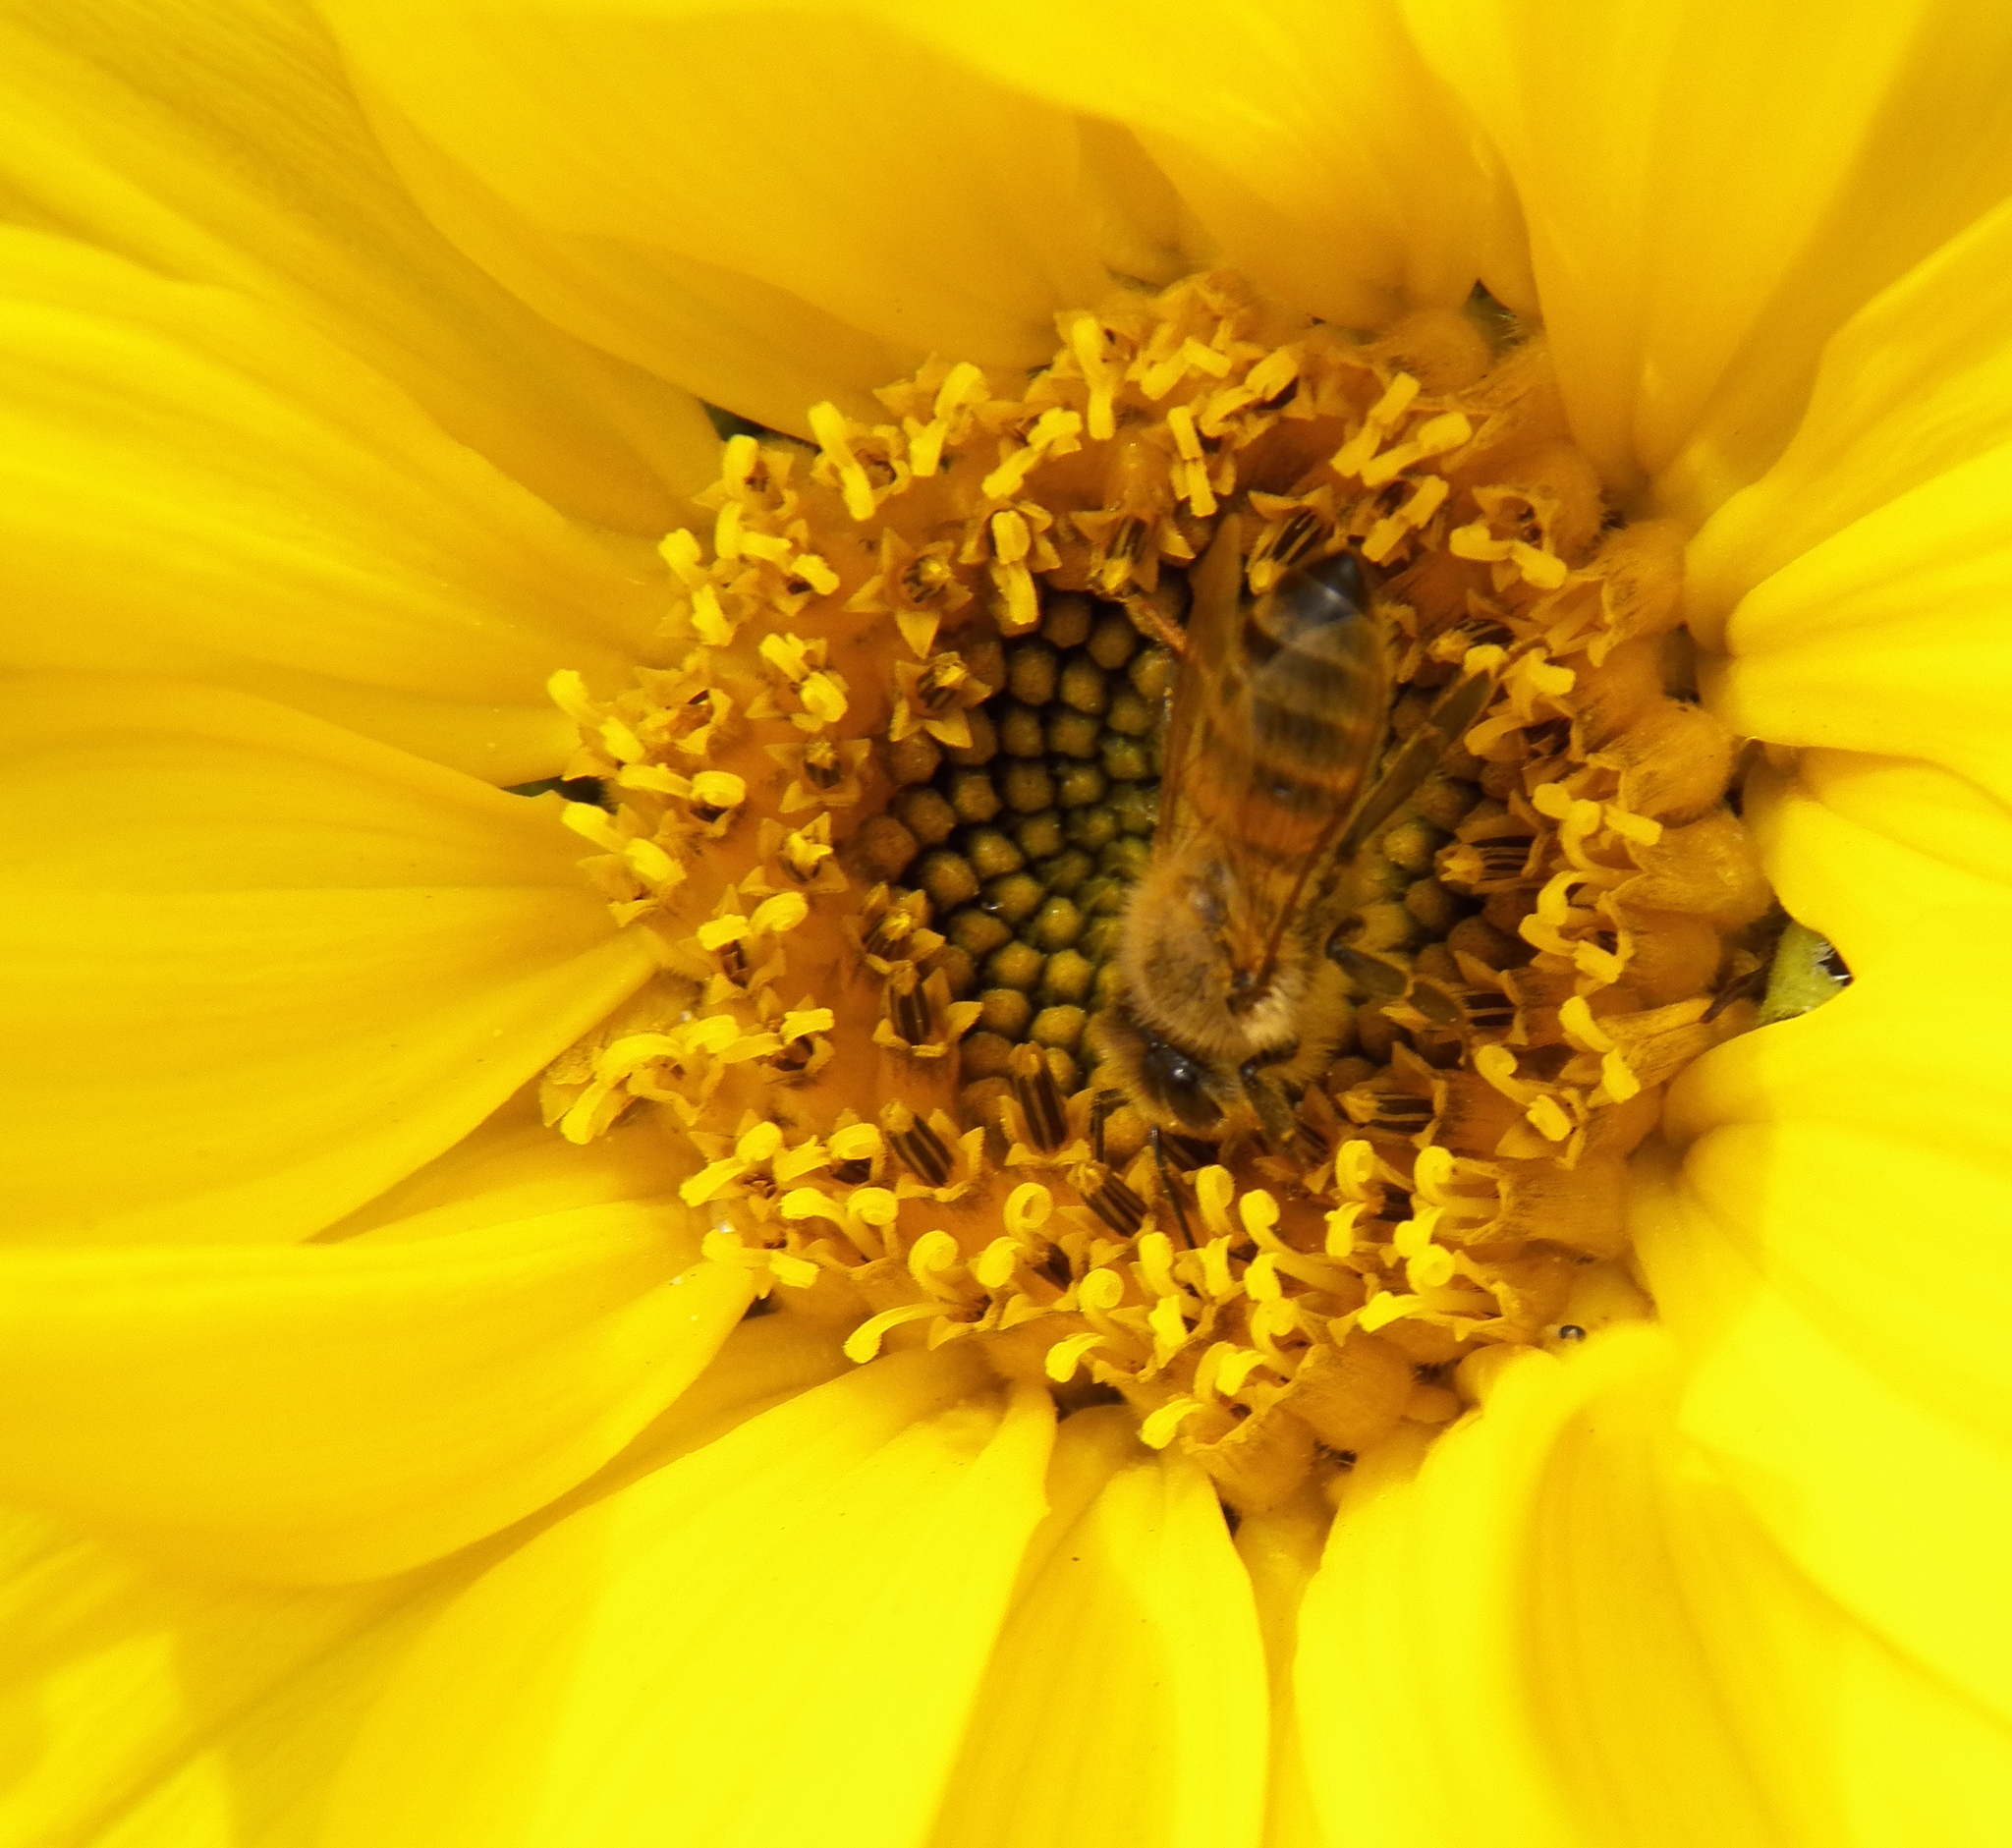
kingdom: Animalia
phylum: Arthropoda
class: Insecta
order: Hymenoptera
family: Apidae
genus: Apis
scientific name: Apis mellifera
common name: Honey bee
